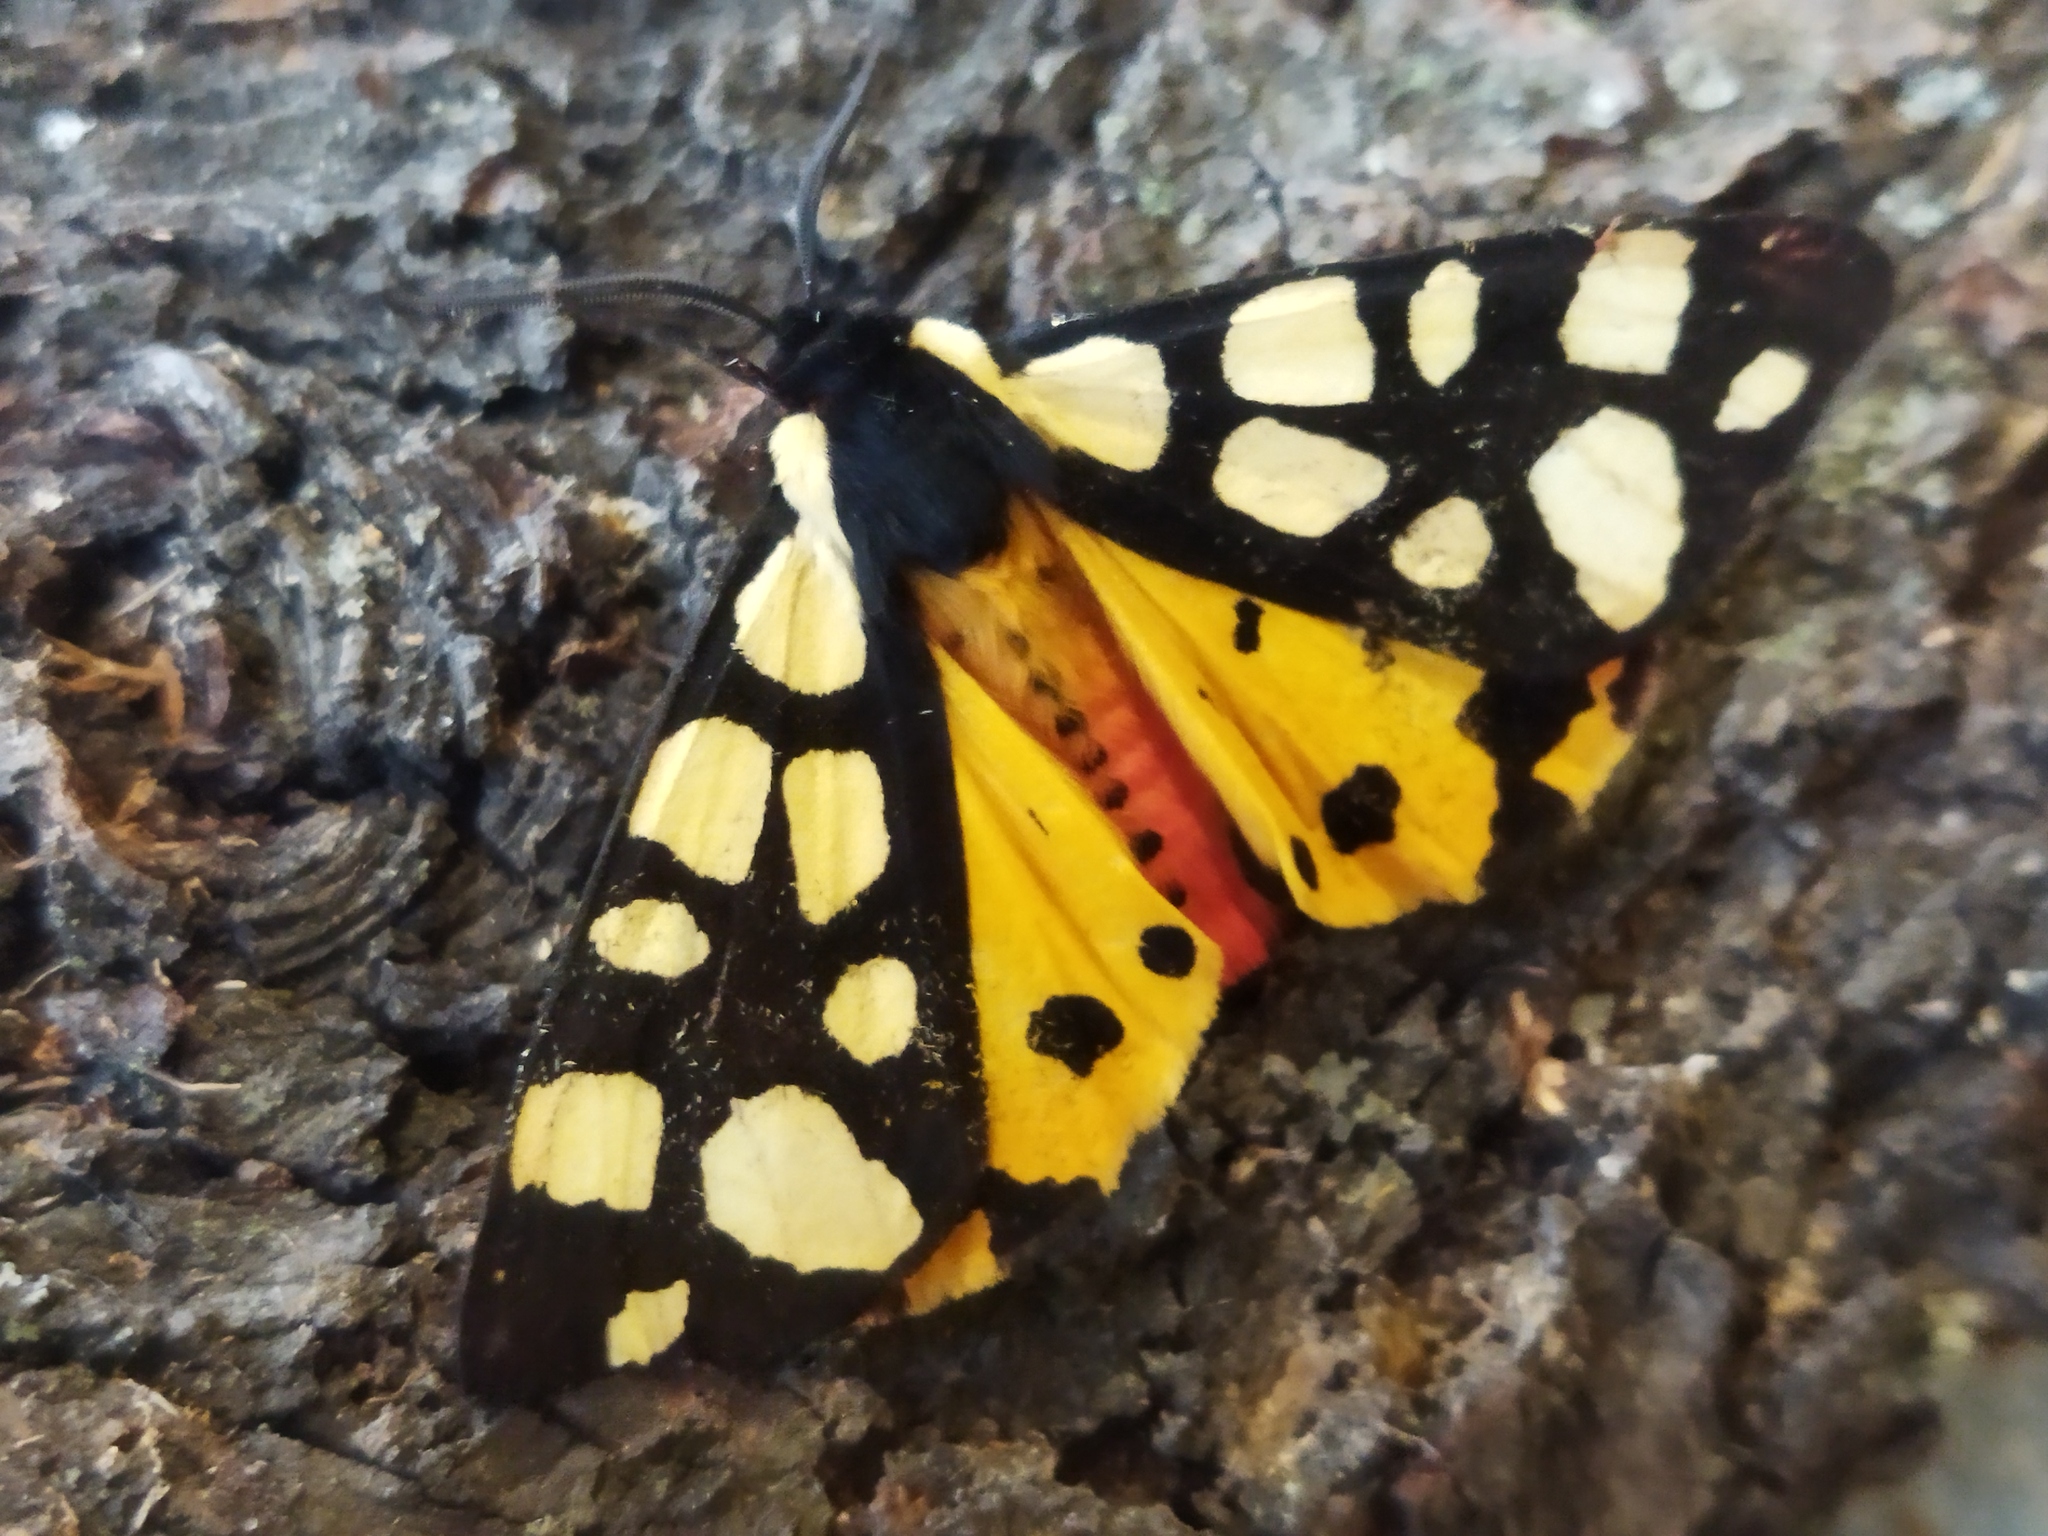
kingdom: Animalia
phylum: Arthropoda
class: Insecta
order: Lepidoptera
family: Erebidae
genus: Epicallia
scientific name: Epicallia villica
